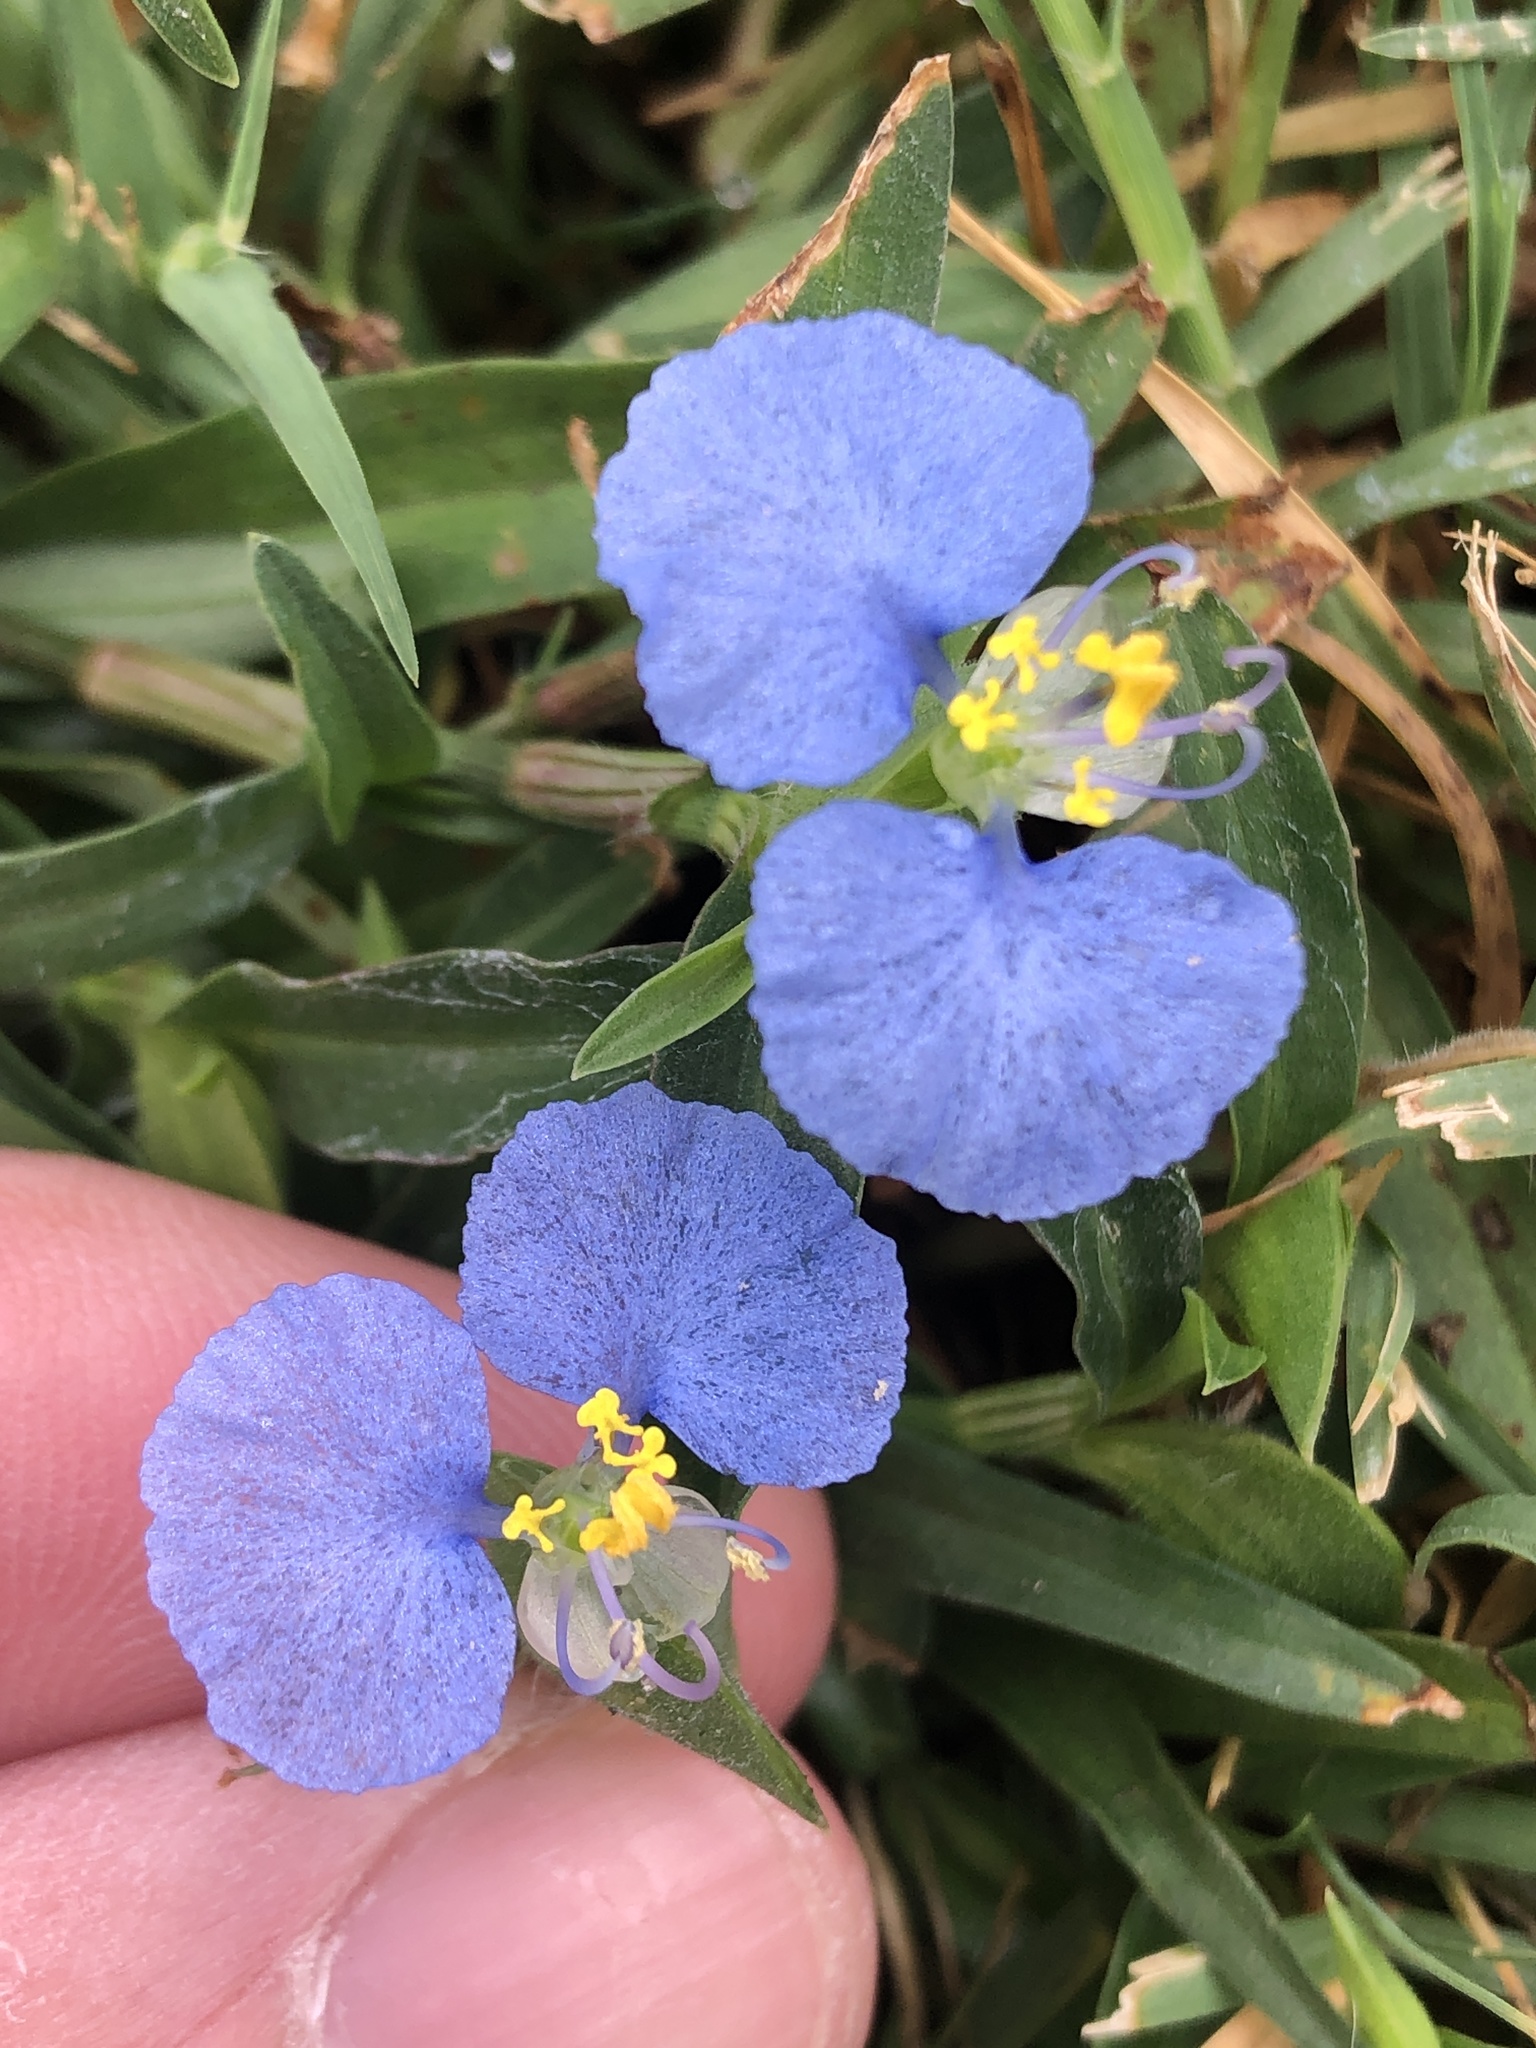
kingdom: Plantae
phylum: Tracheophyta
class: Liliopsida
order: Commelinales
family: Commelinaceae
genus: Commelina
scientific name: Commelina erecta
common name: Blousel blommetjie
